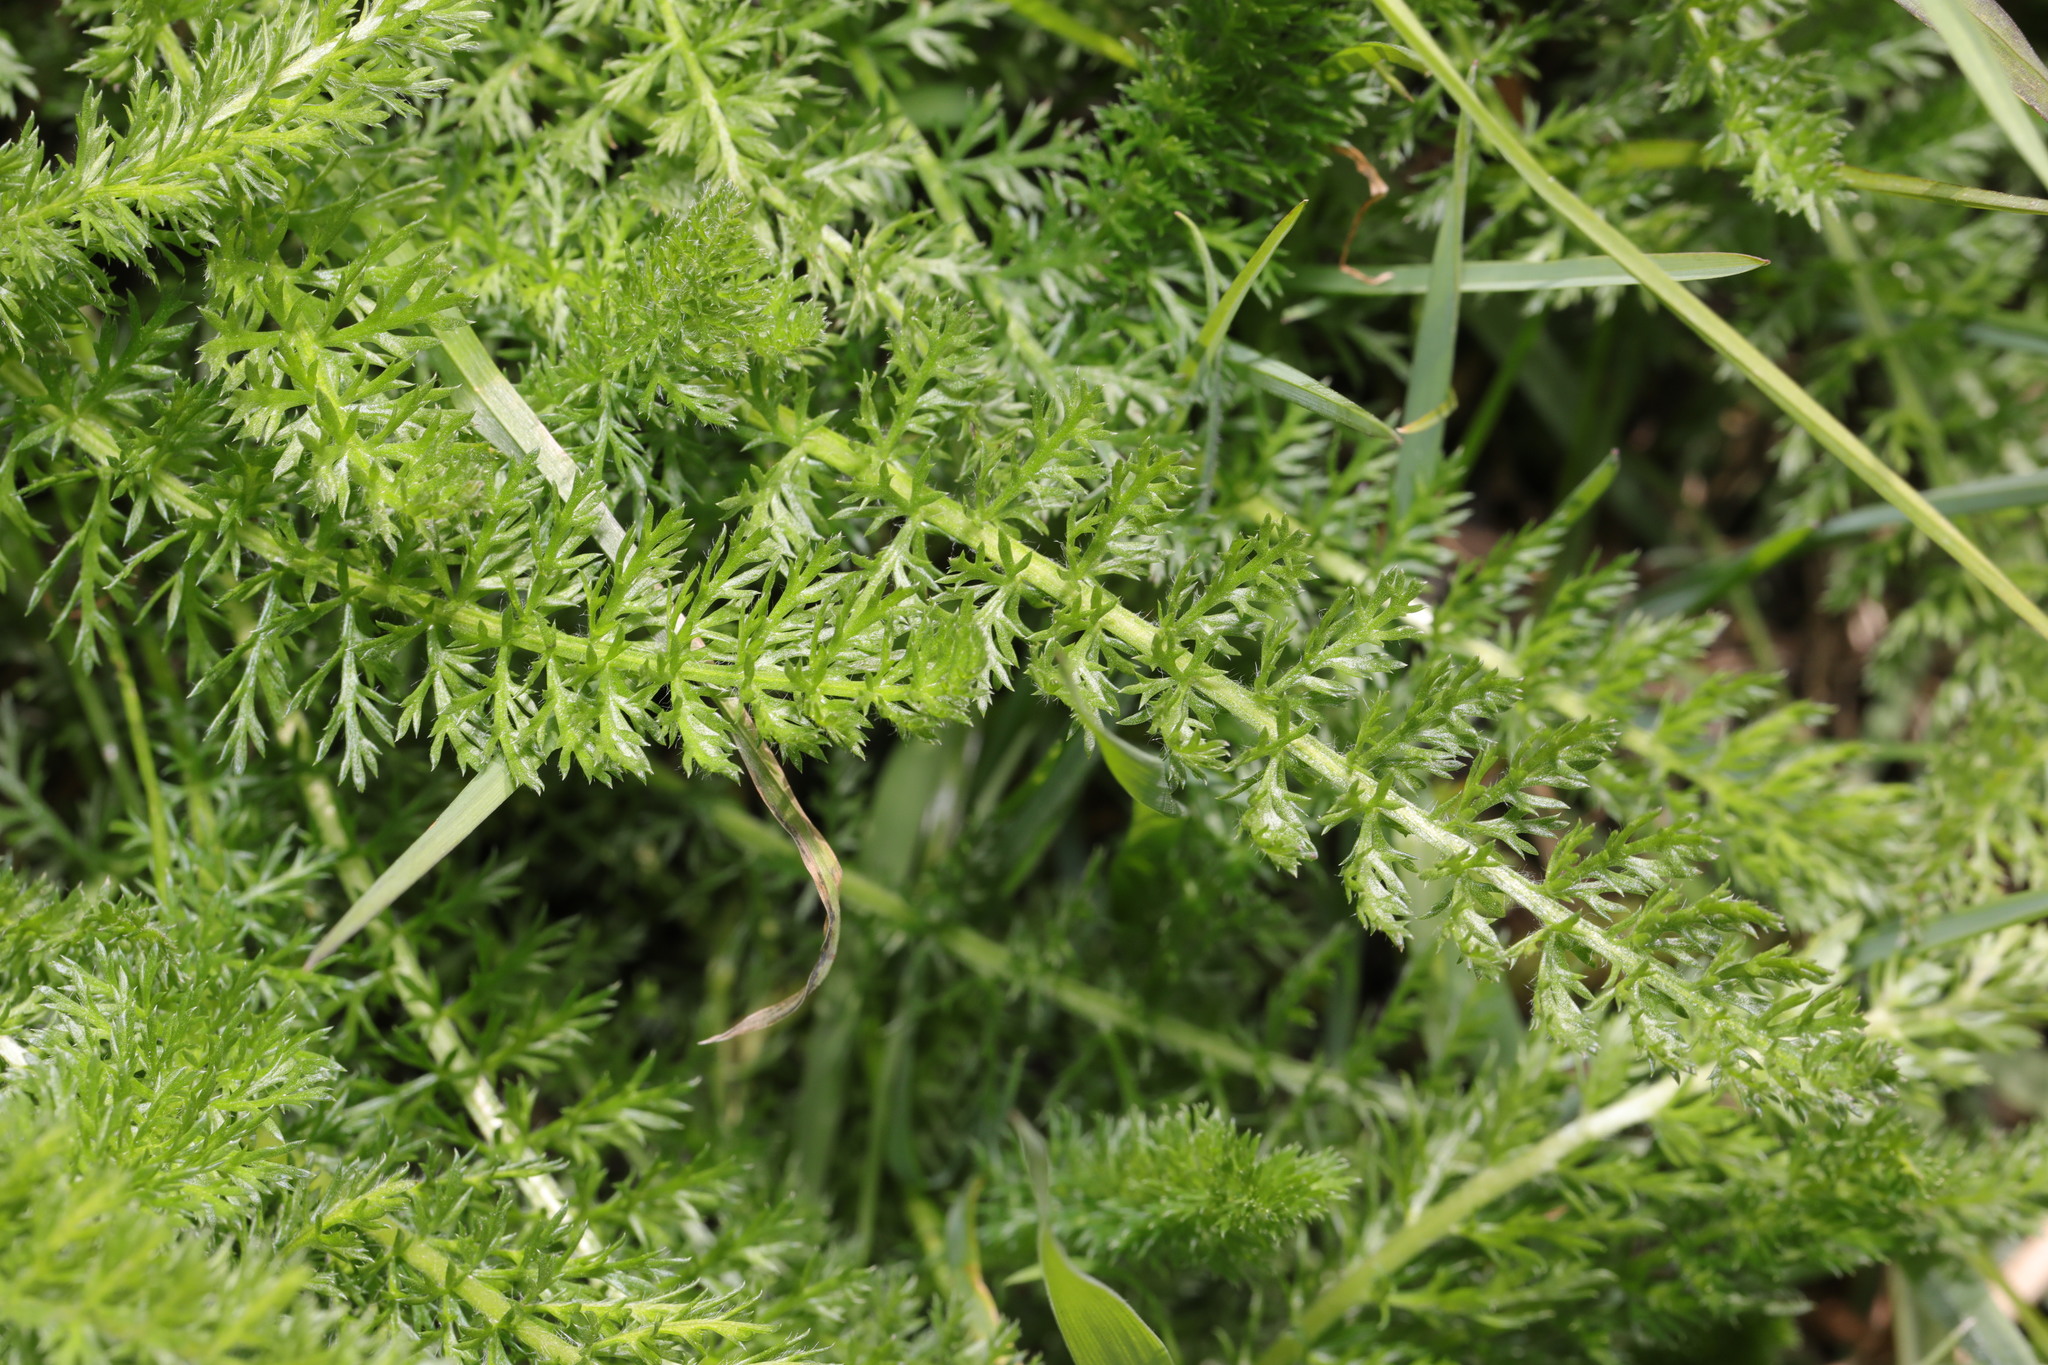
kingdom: Plantae
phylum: Tracheophyta
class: Magnoliopsida
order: Asterales
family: Asteraceae
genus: Achillea
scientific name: Achillea millefolium
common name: Yarrow
